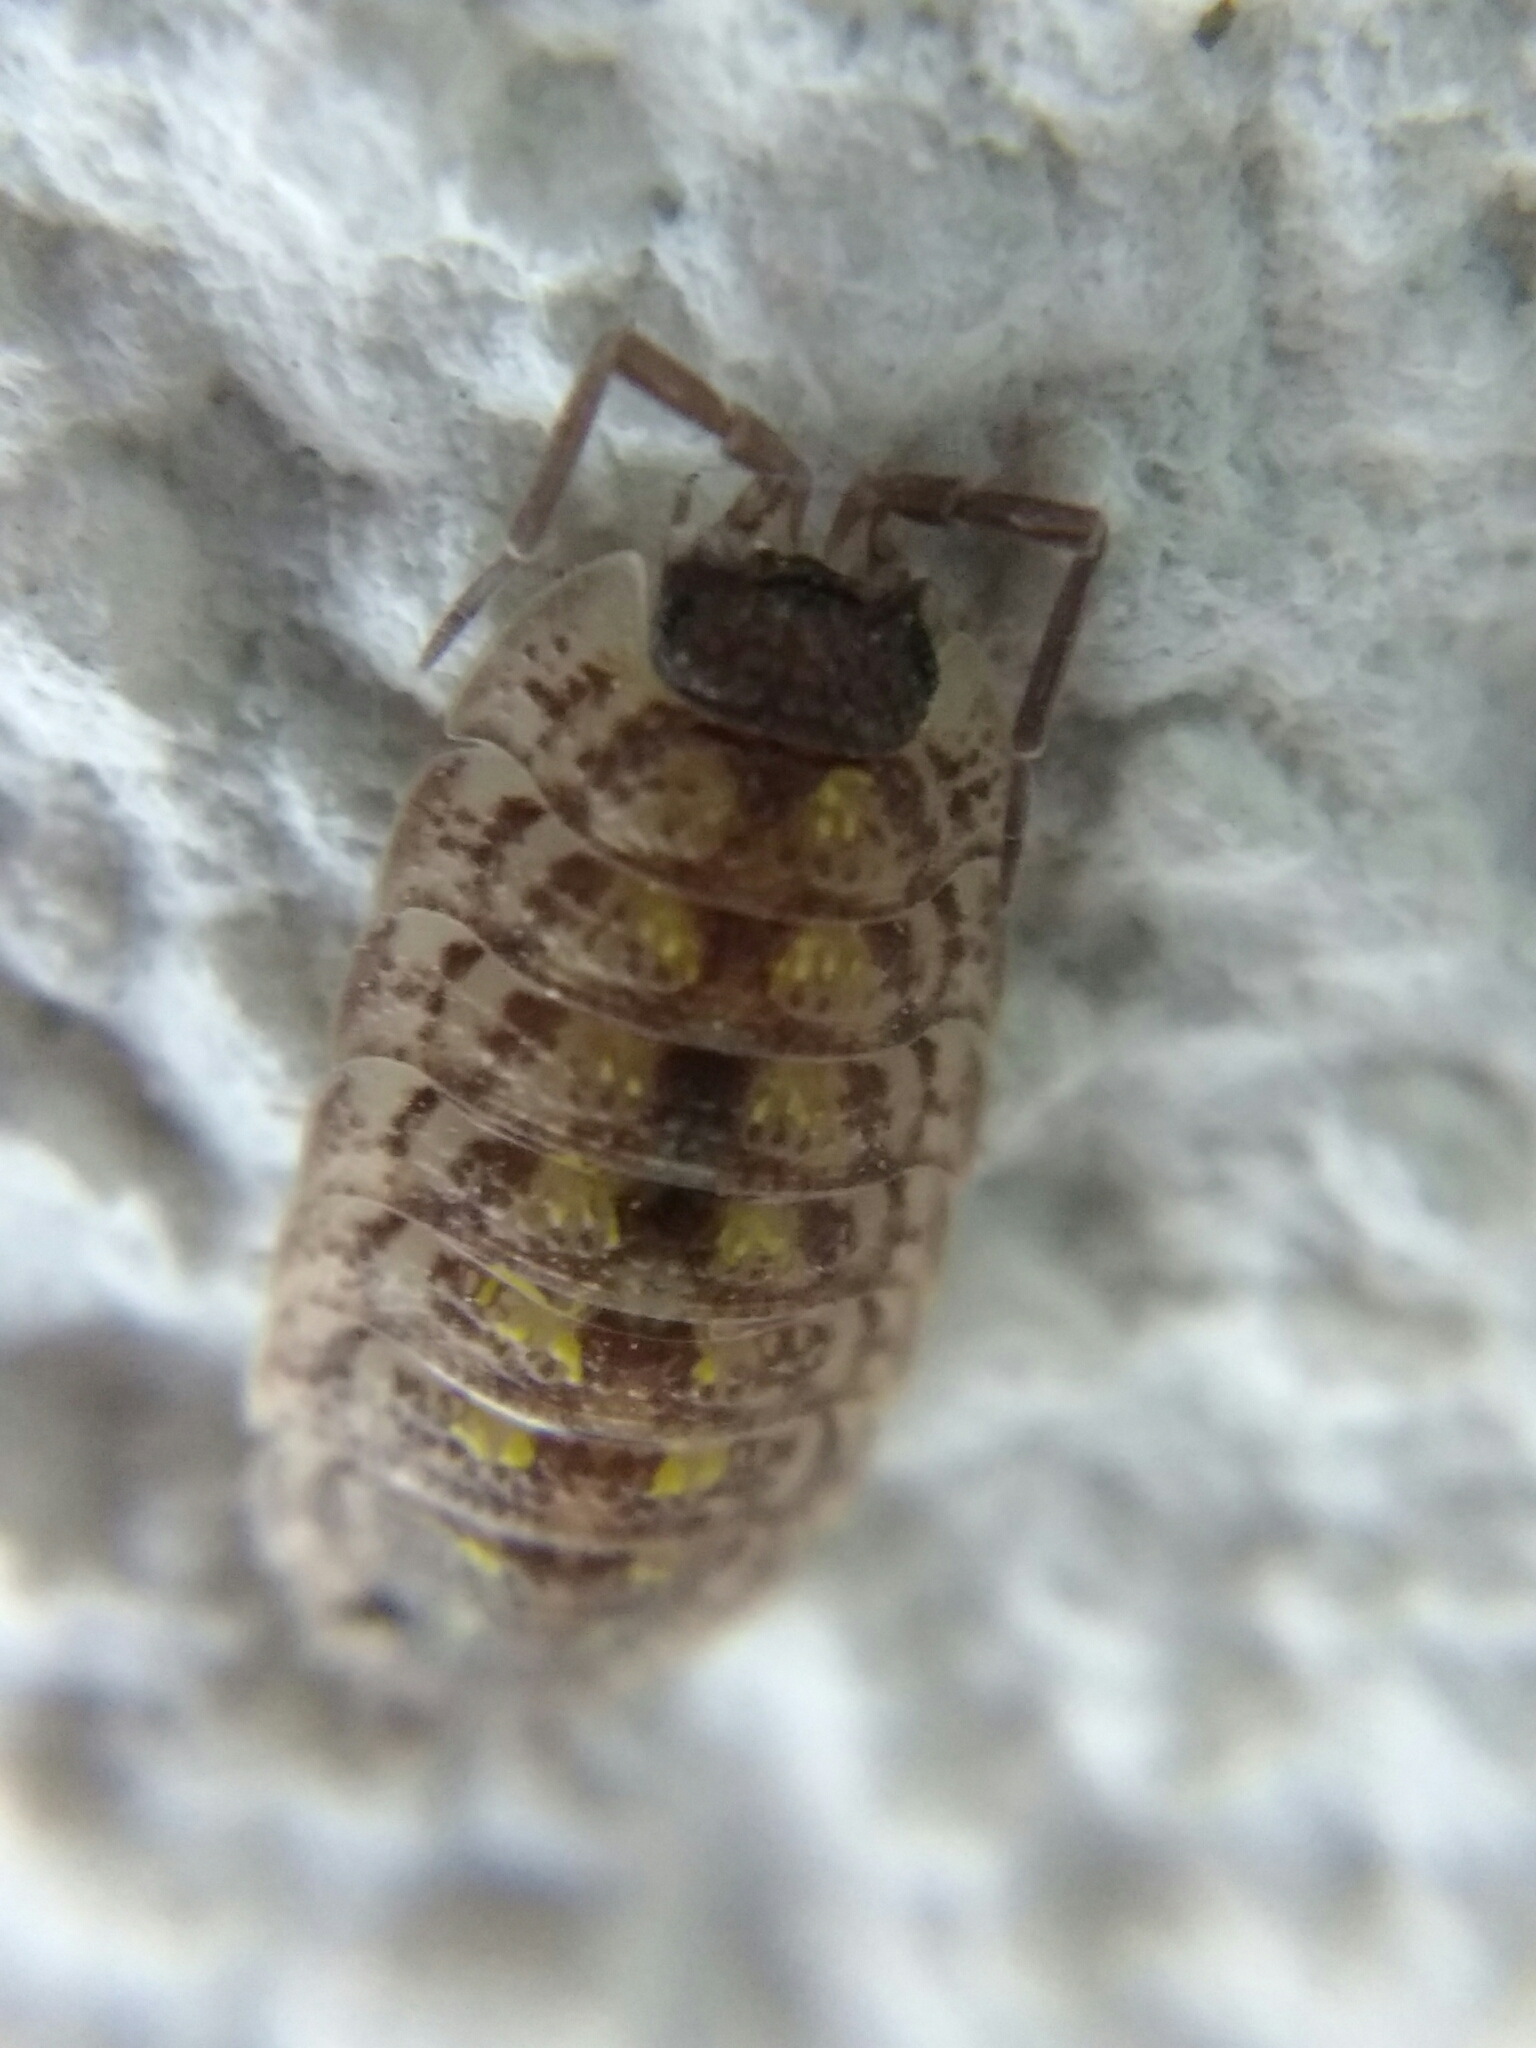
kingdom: Animalia
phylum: Arthropoda
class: Malacostraca
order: Isopoda
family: Porcellionidae
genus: Porcellio
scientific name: Porcellio spinicornis
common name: Painted woodlouse
